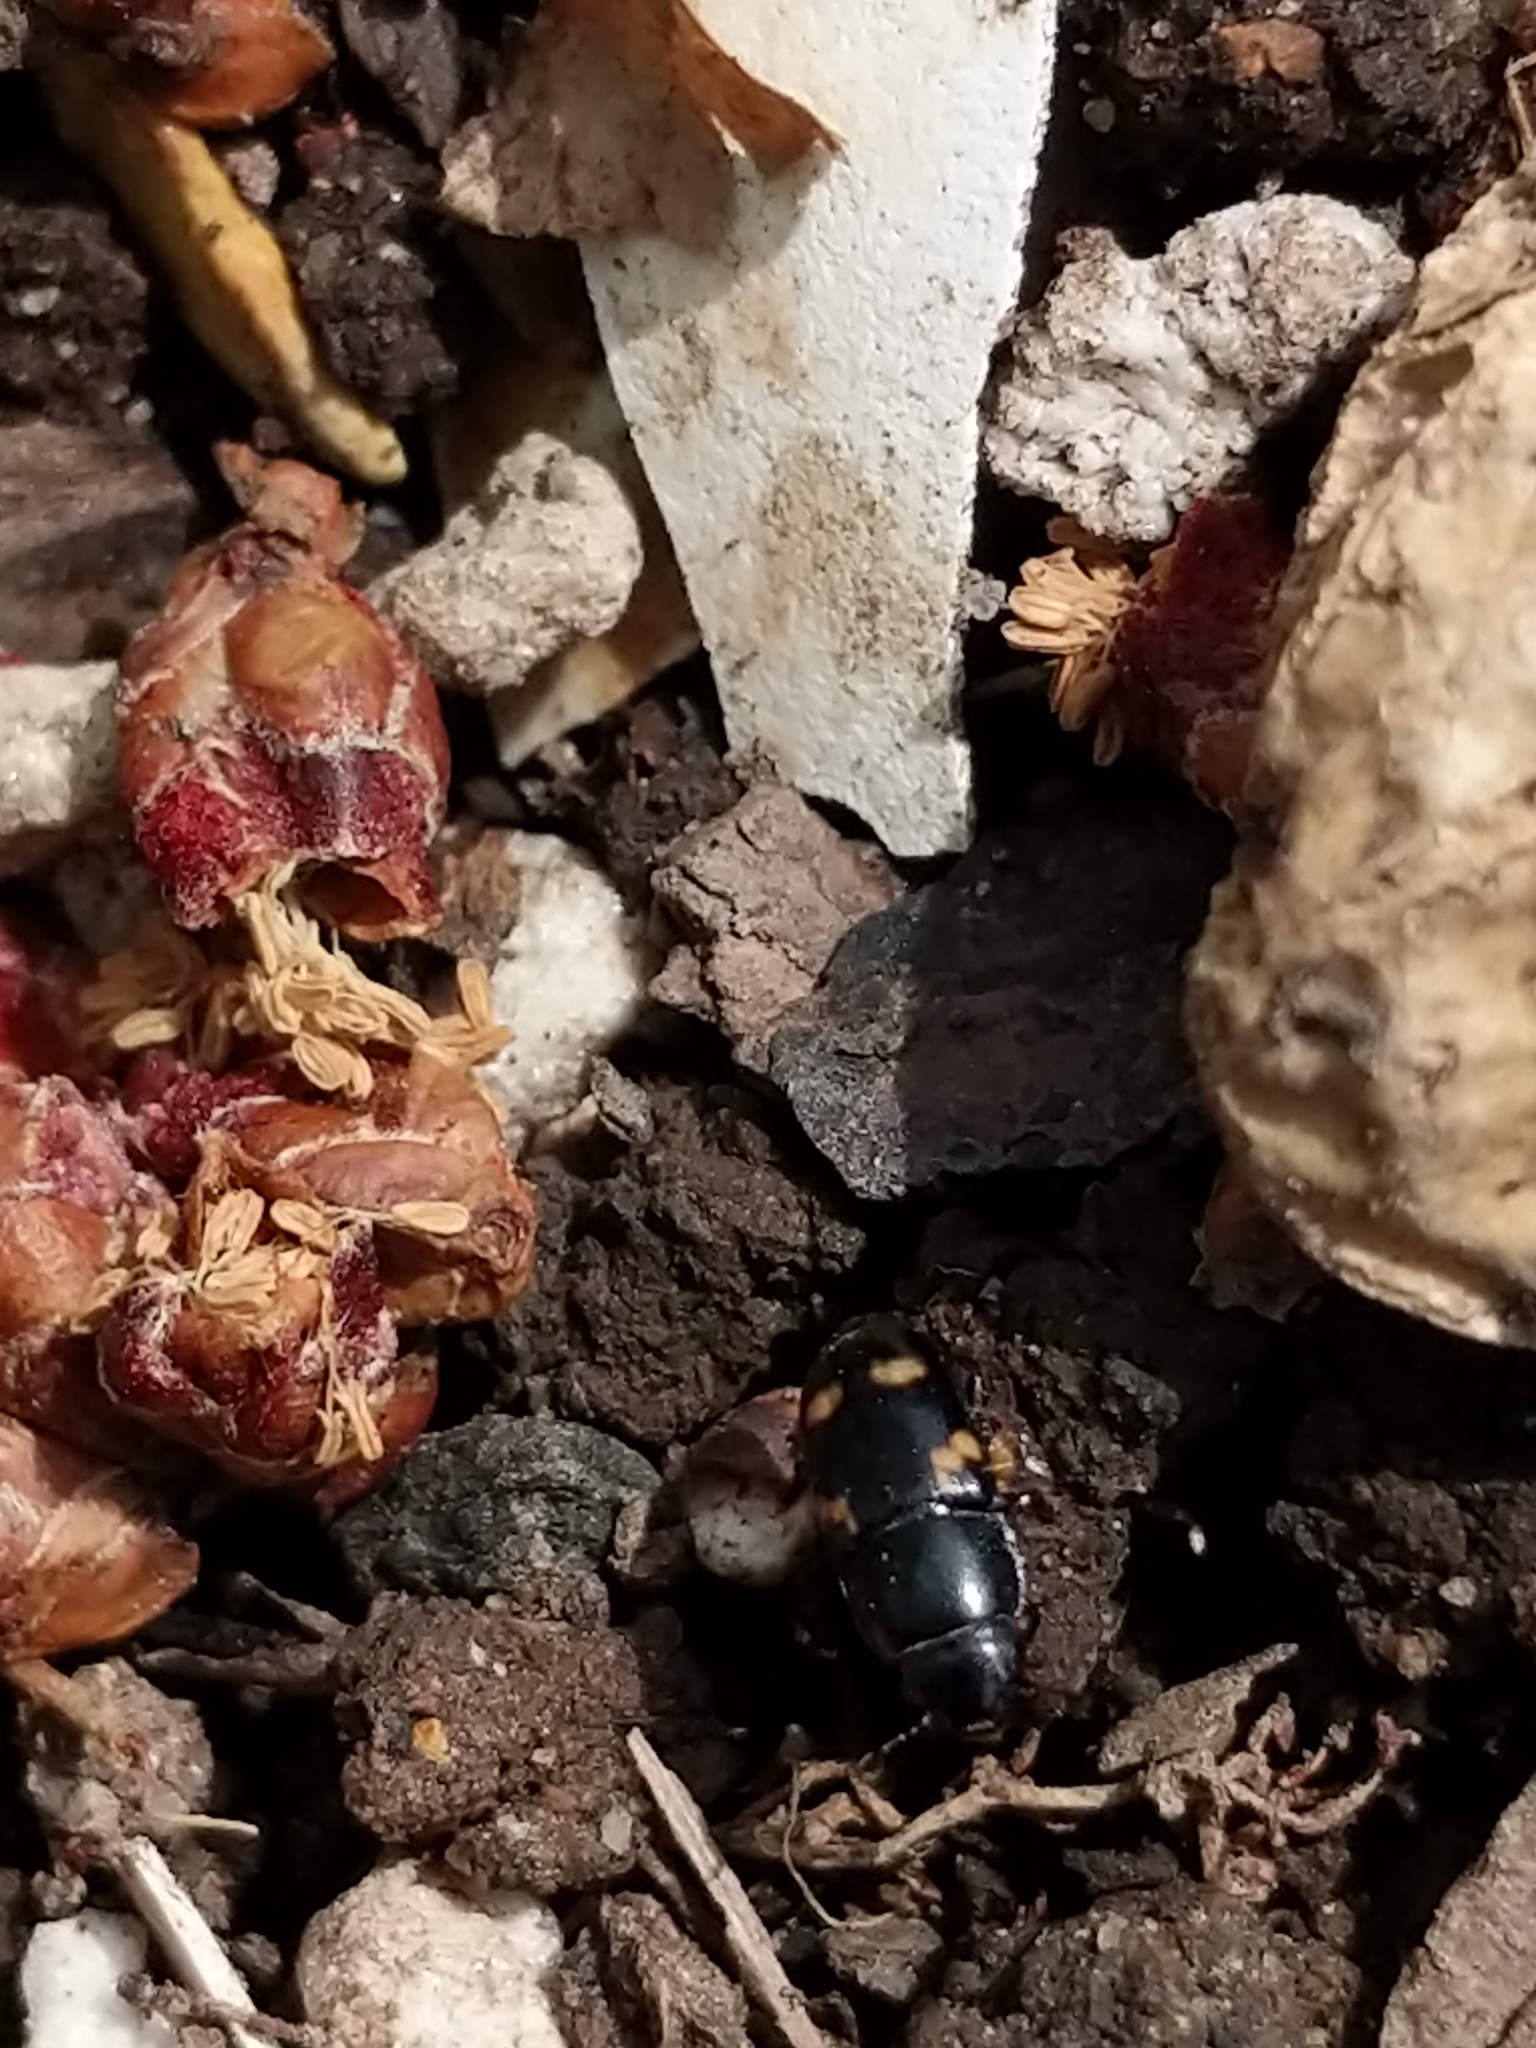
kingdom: Animalia
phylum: Arthropoda
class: Insecta
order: Coleoptera
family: Nitidulidae
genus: Glischrochilus
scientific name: Glischrochilus quadrisignatus
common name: Picnic beetle
